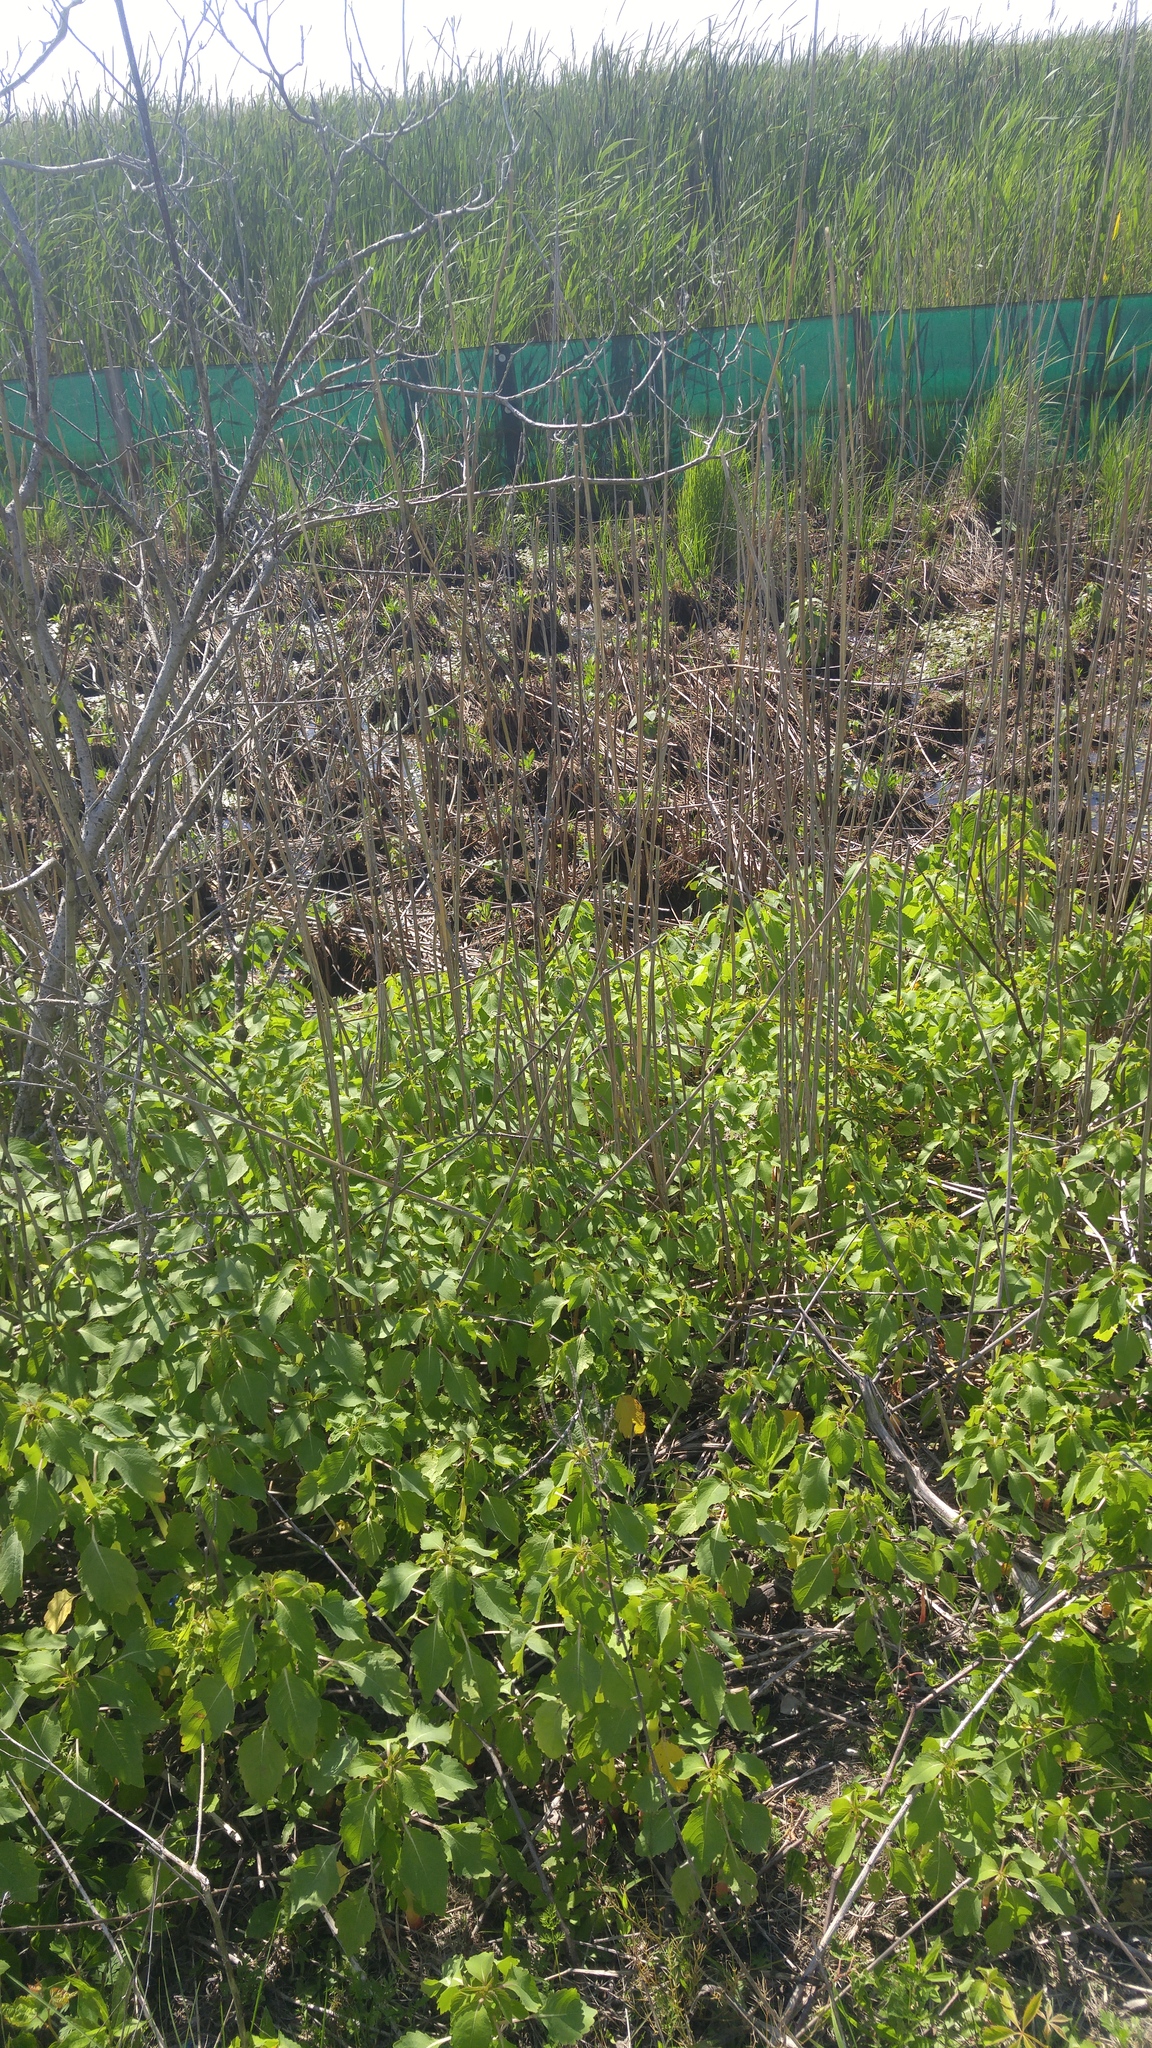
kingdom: Animalia
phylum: Chordata
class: Testudines
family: Emydidae
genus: Chrysemys
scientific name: Chrysemys picta
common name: Painted turtle
